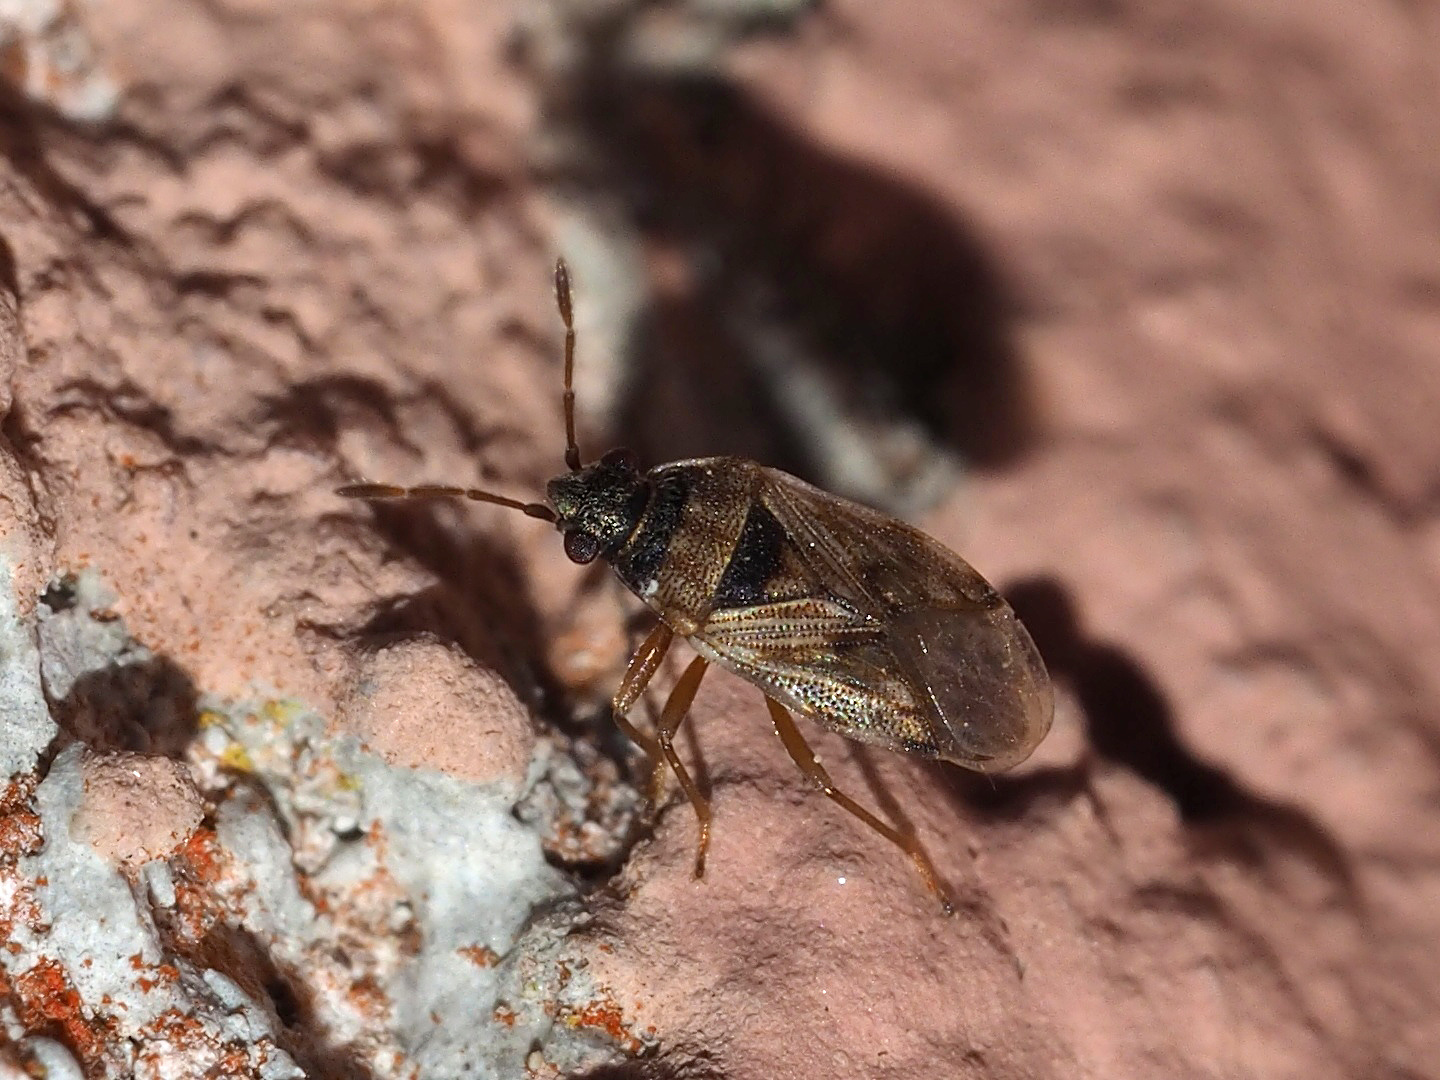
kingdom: Animalia
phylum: Arthropoda
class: Insecta
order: Hemiptera
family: Rhyparochromidae
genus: Hyalochilus
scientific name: Hyalochilus ovatulus
